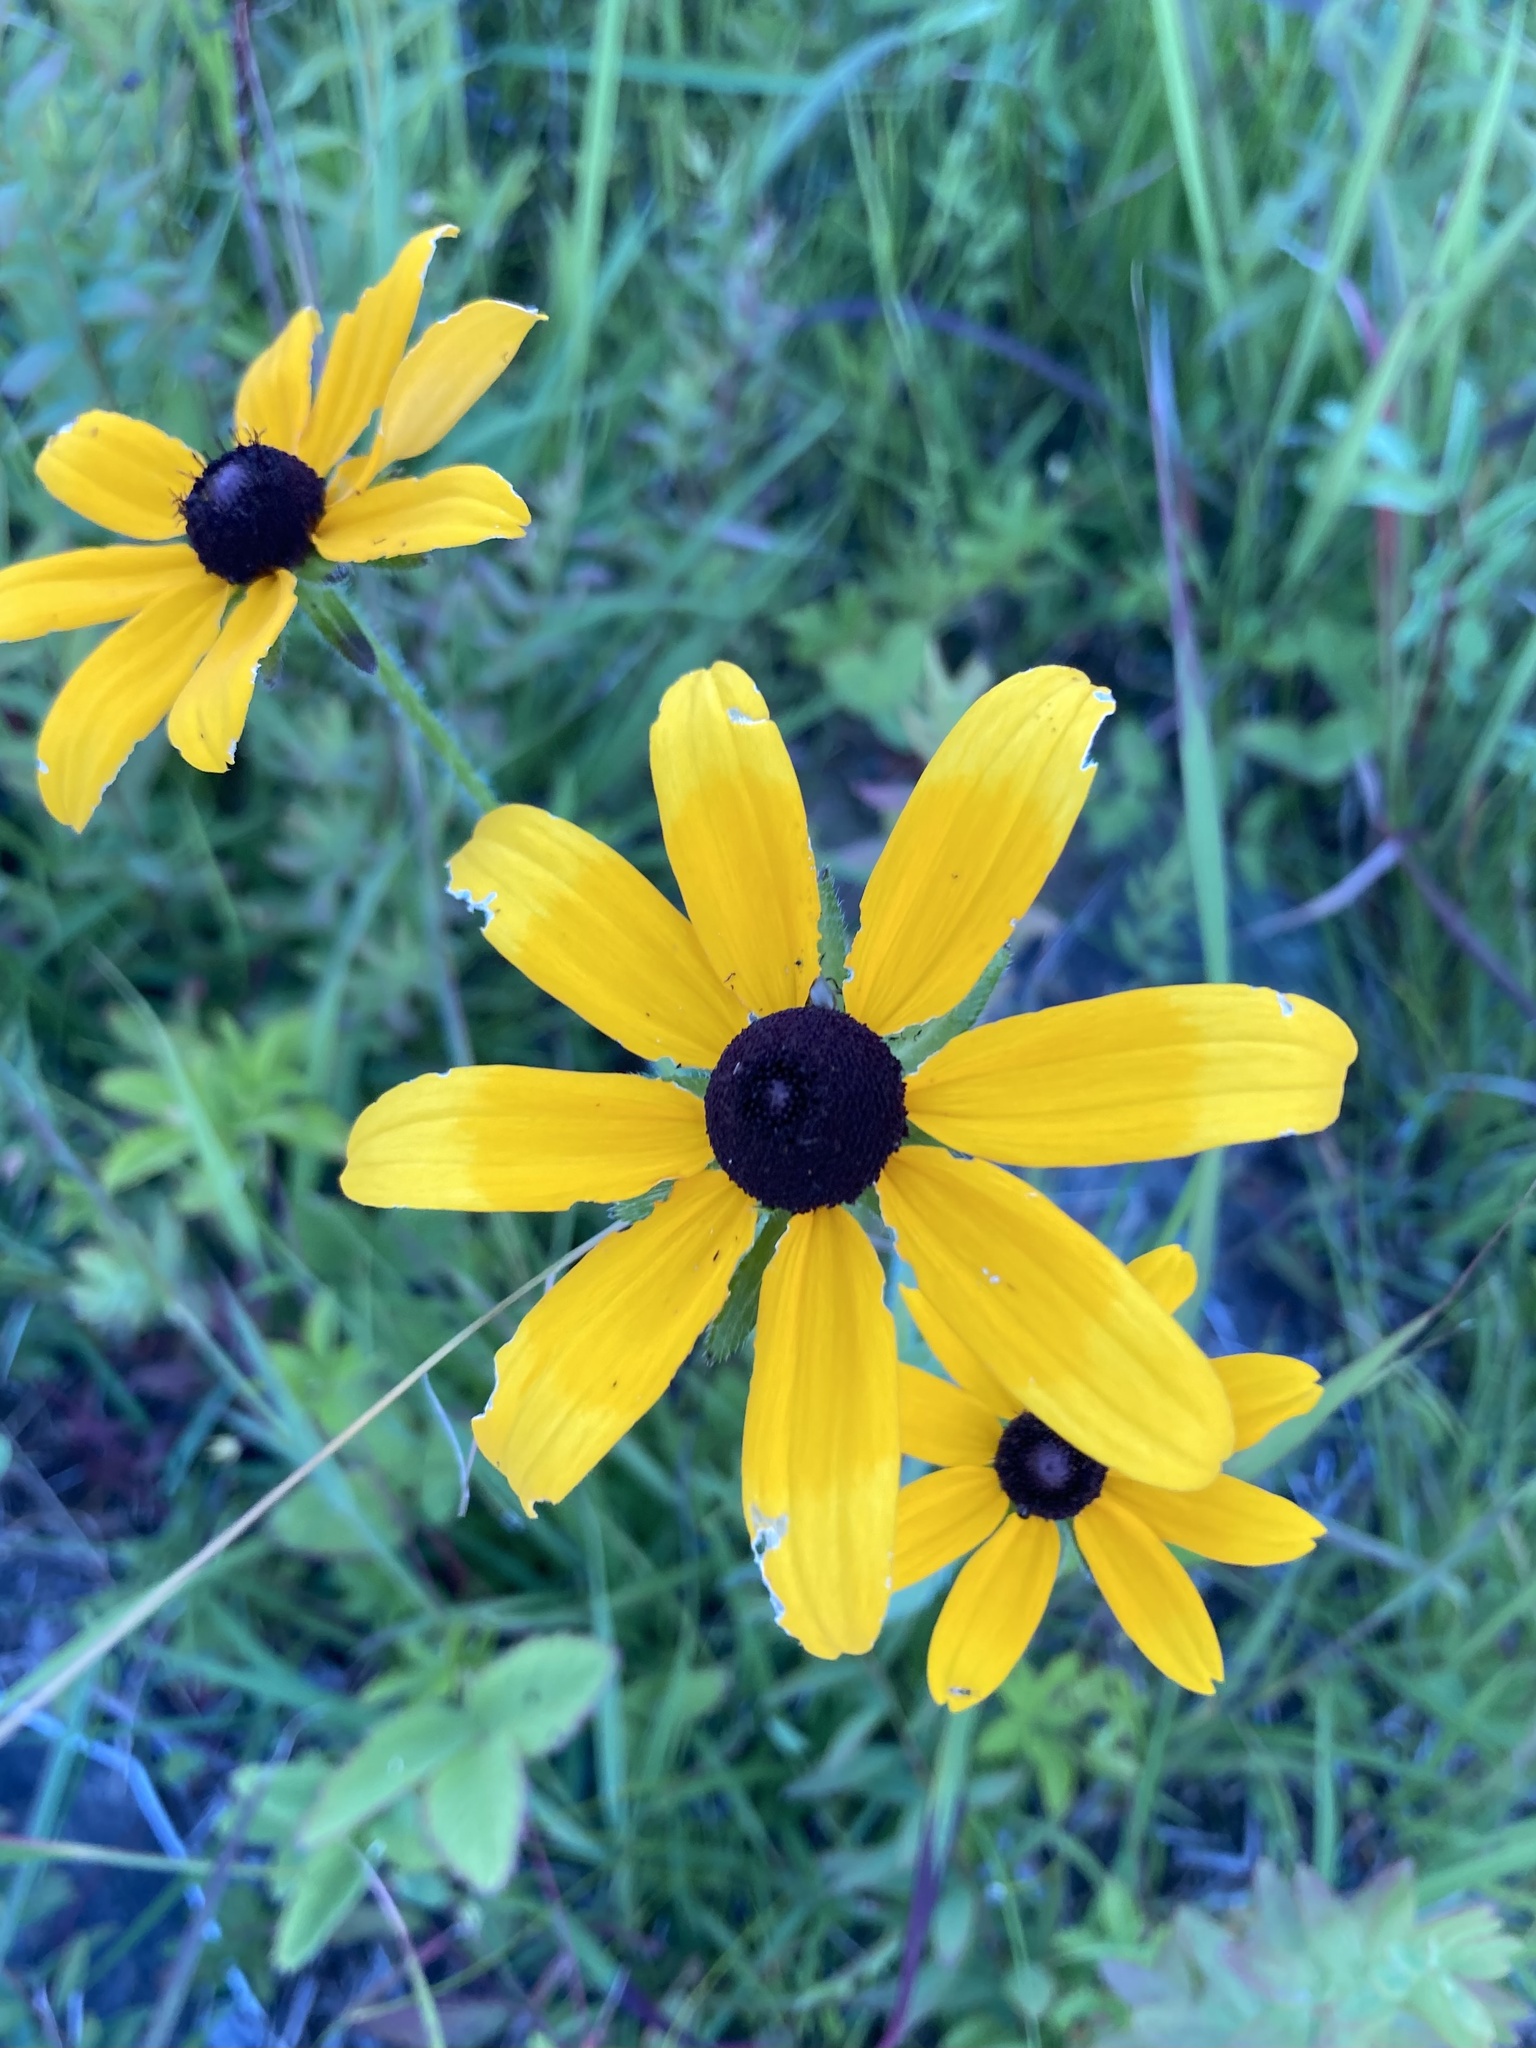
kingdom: Plantae
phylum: Tracheophyta
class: Magnoliopsida
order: Asterales
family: Asteraceae
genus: Rudbeckia
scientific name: Rudbeckia hirta
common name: Black-eyed-susan
